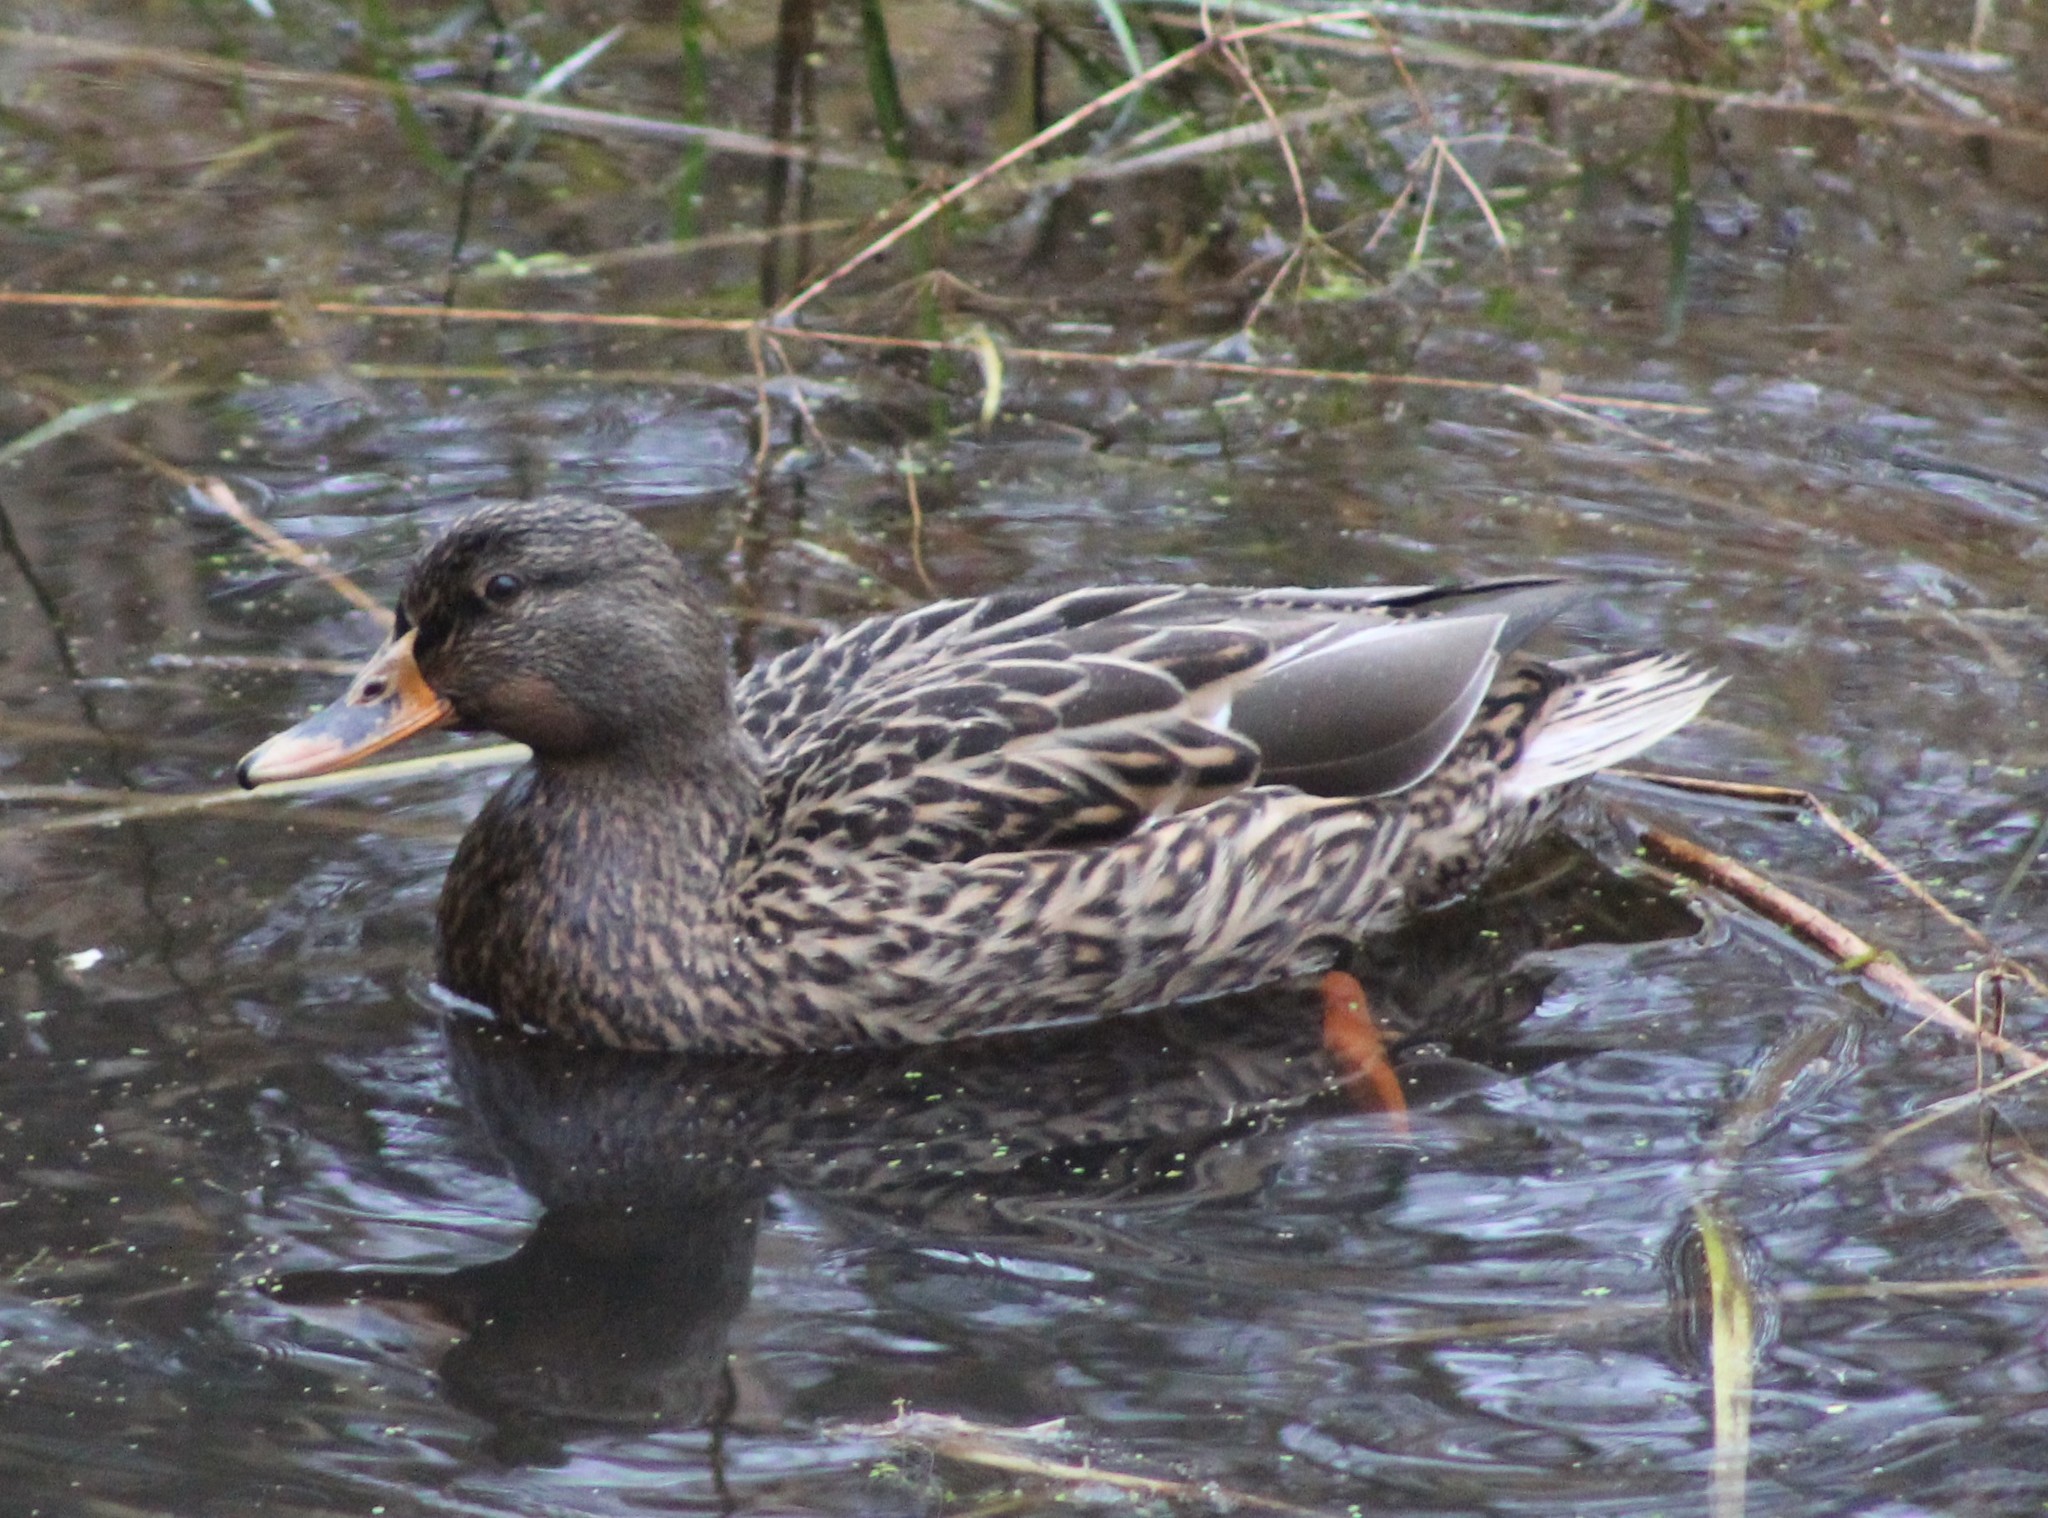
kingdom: Animalia
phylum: Chordata
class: Aves
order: Anseriformes
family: Anatidae
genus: Anas
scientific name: Anas platyrhynchos
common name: Mallard
